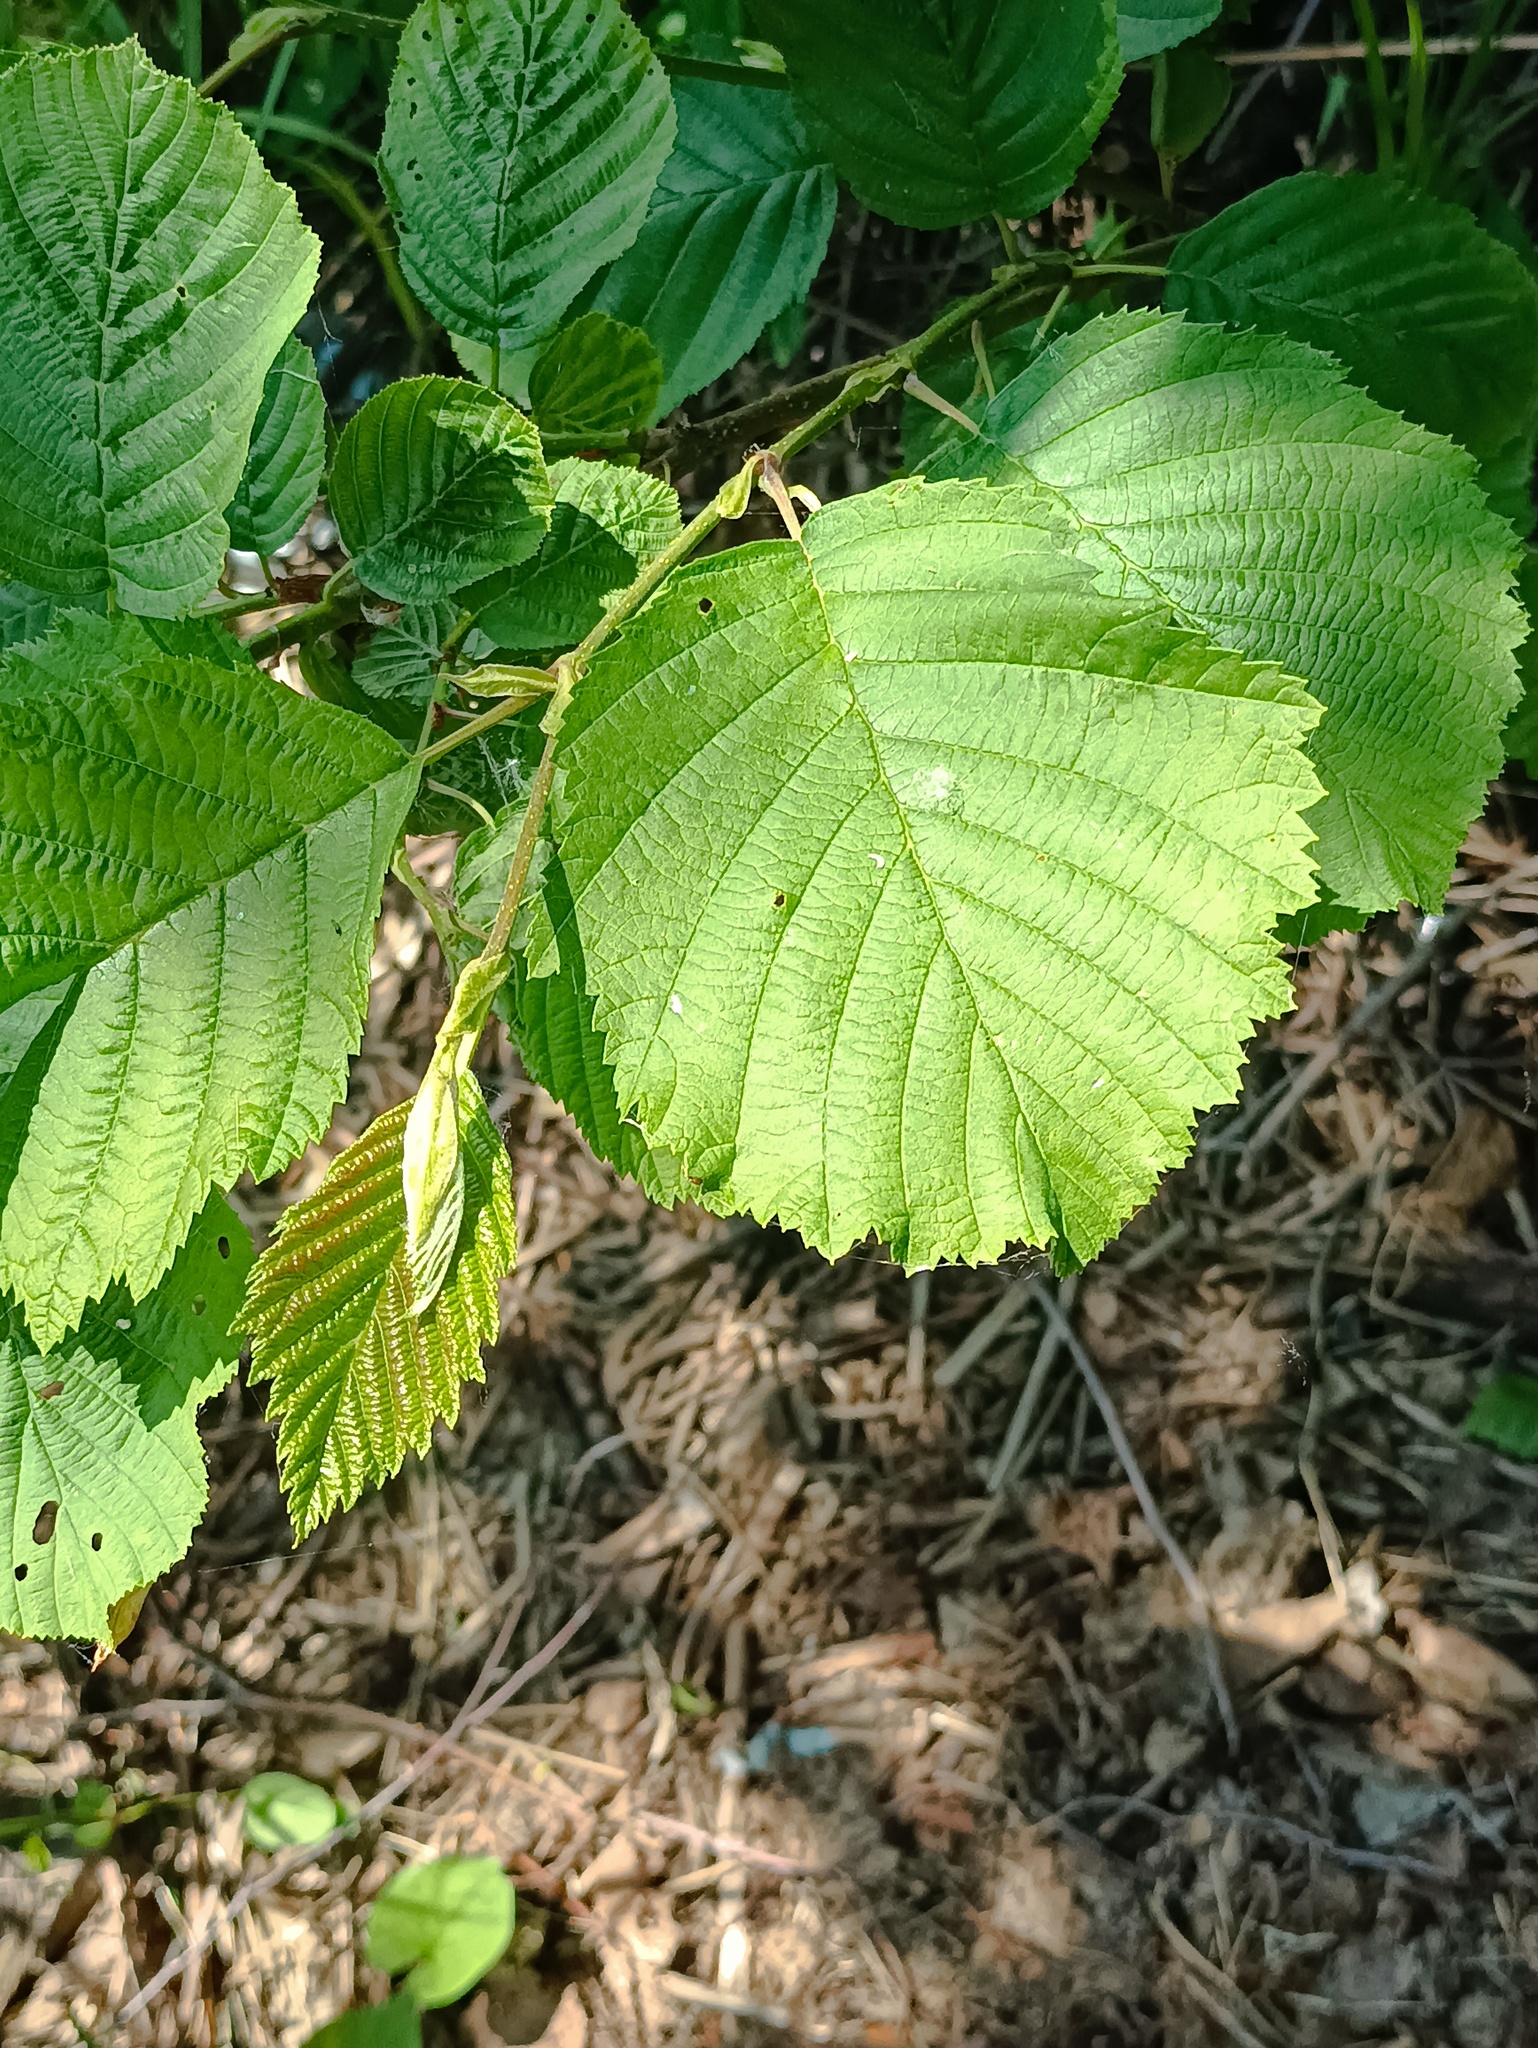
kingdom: Plantae
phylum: Tracheophyta
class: Magnoliopsida
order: Fagales
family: Betulaceae
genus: Corylus
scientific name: Corylus avellana
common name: European hazel
